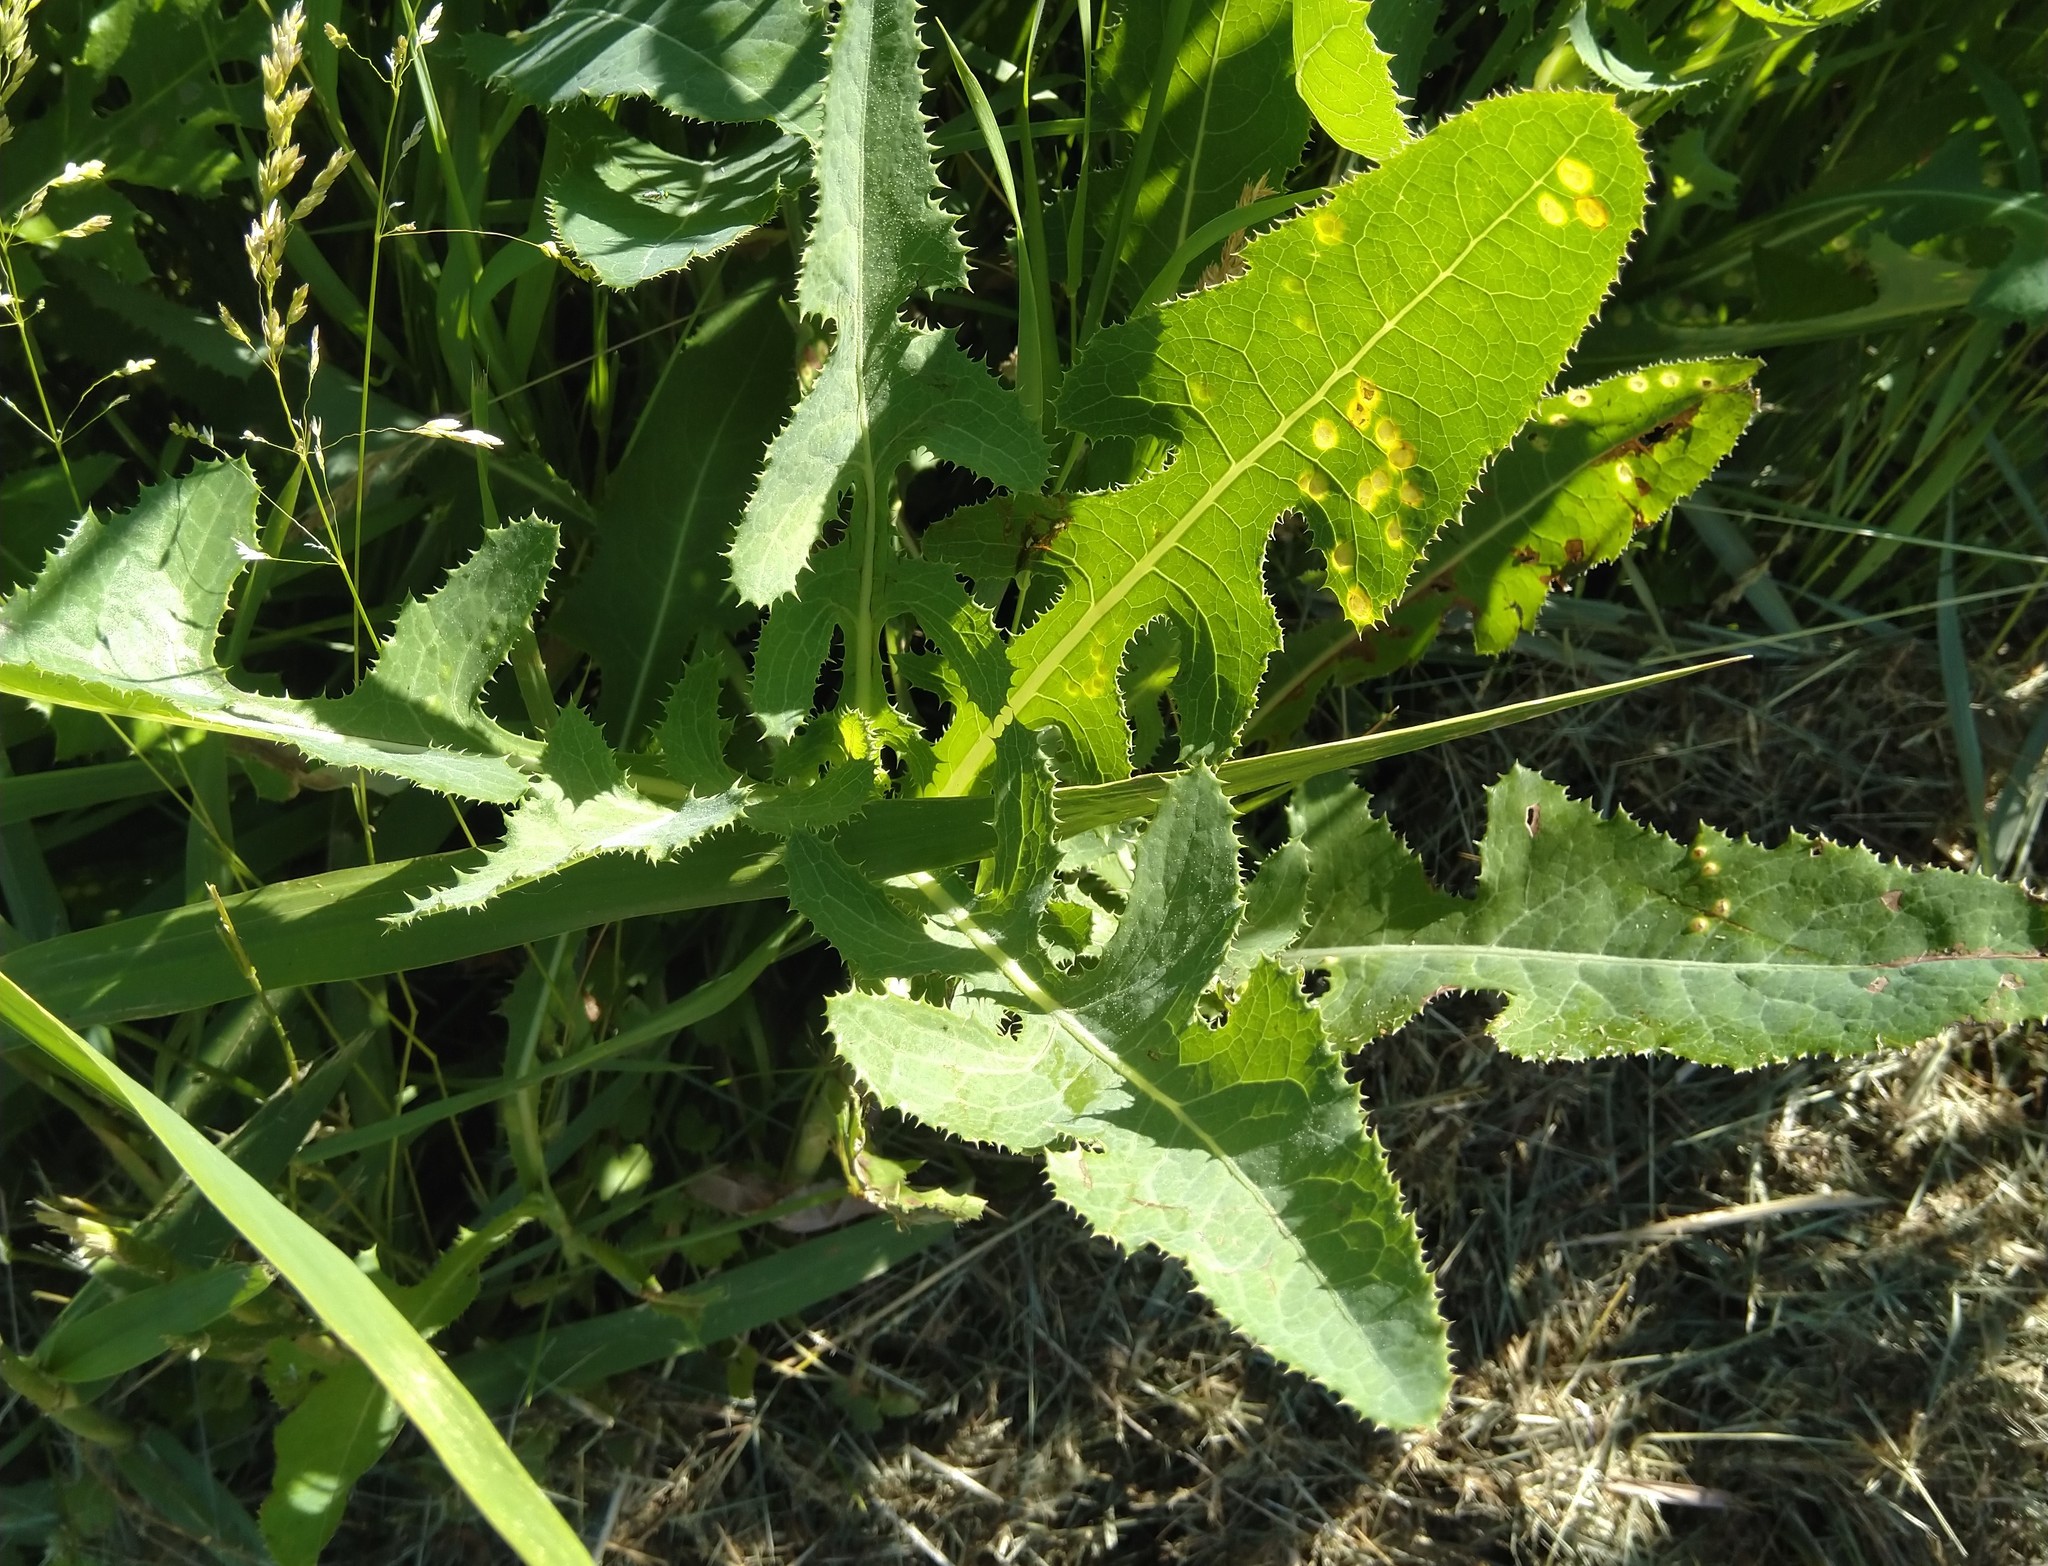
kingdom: Animalia
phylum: Arthropoda
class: Insecta
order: Diptera
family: Cecidomyiidae
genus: Cystiphora
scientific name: Cystiphora sonchi
